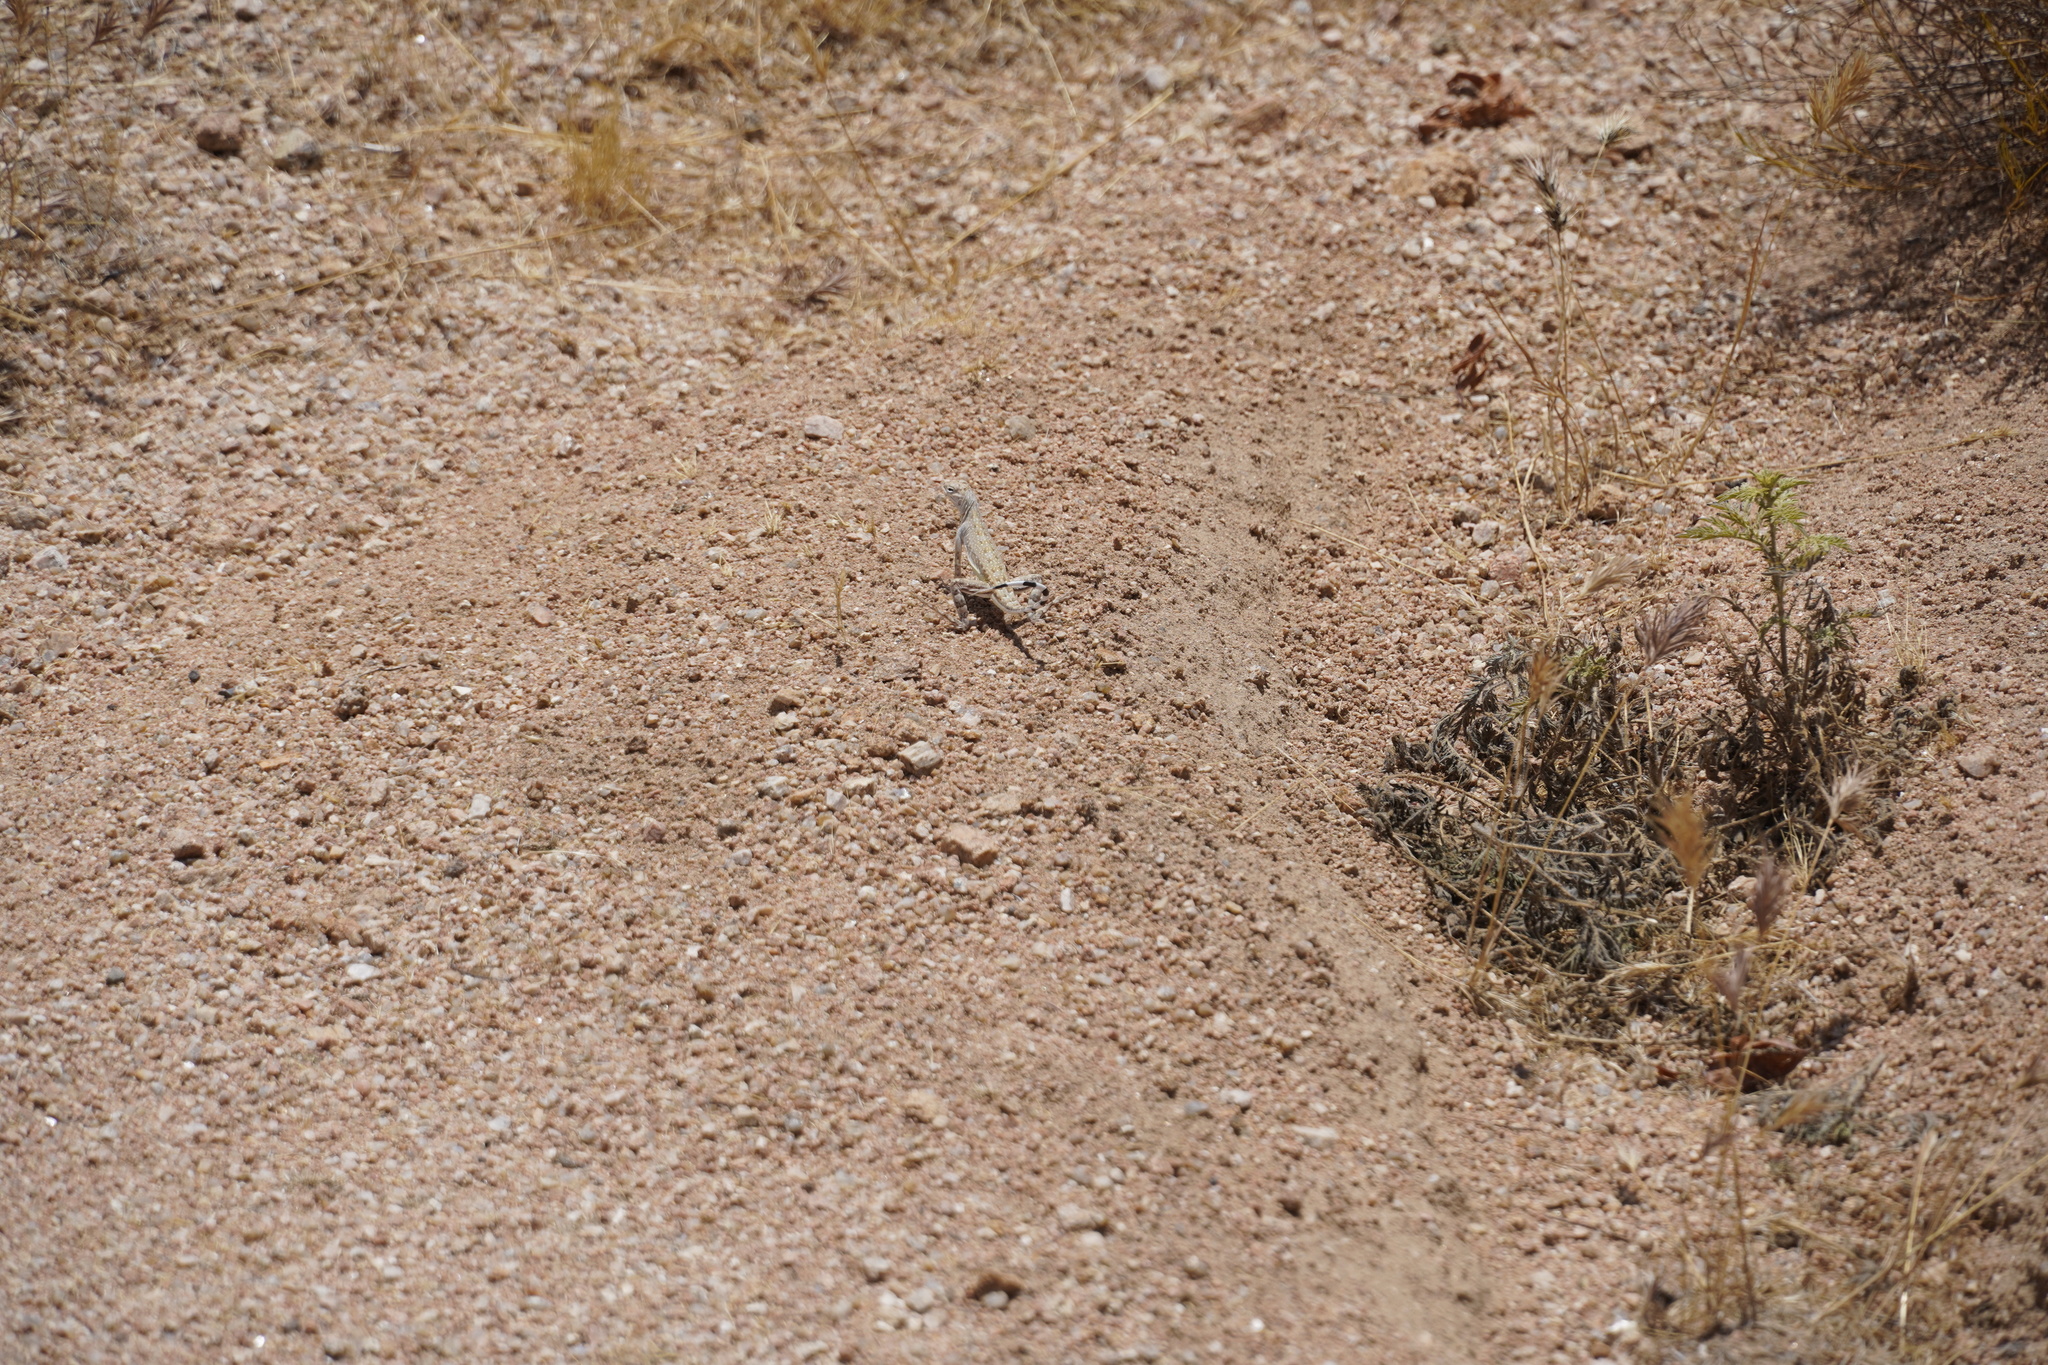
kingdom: Animalia
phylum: Chordata
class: Squamata
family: Phrynosomatidae
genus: Callisaurus
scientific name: Callisaurus draconoides
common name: Zebra-tailed lizard
